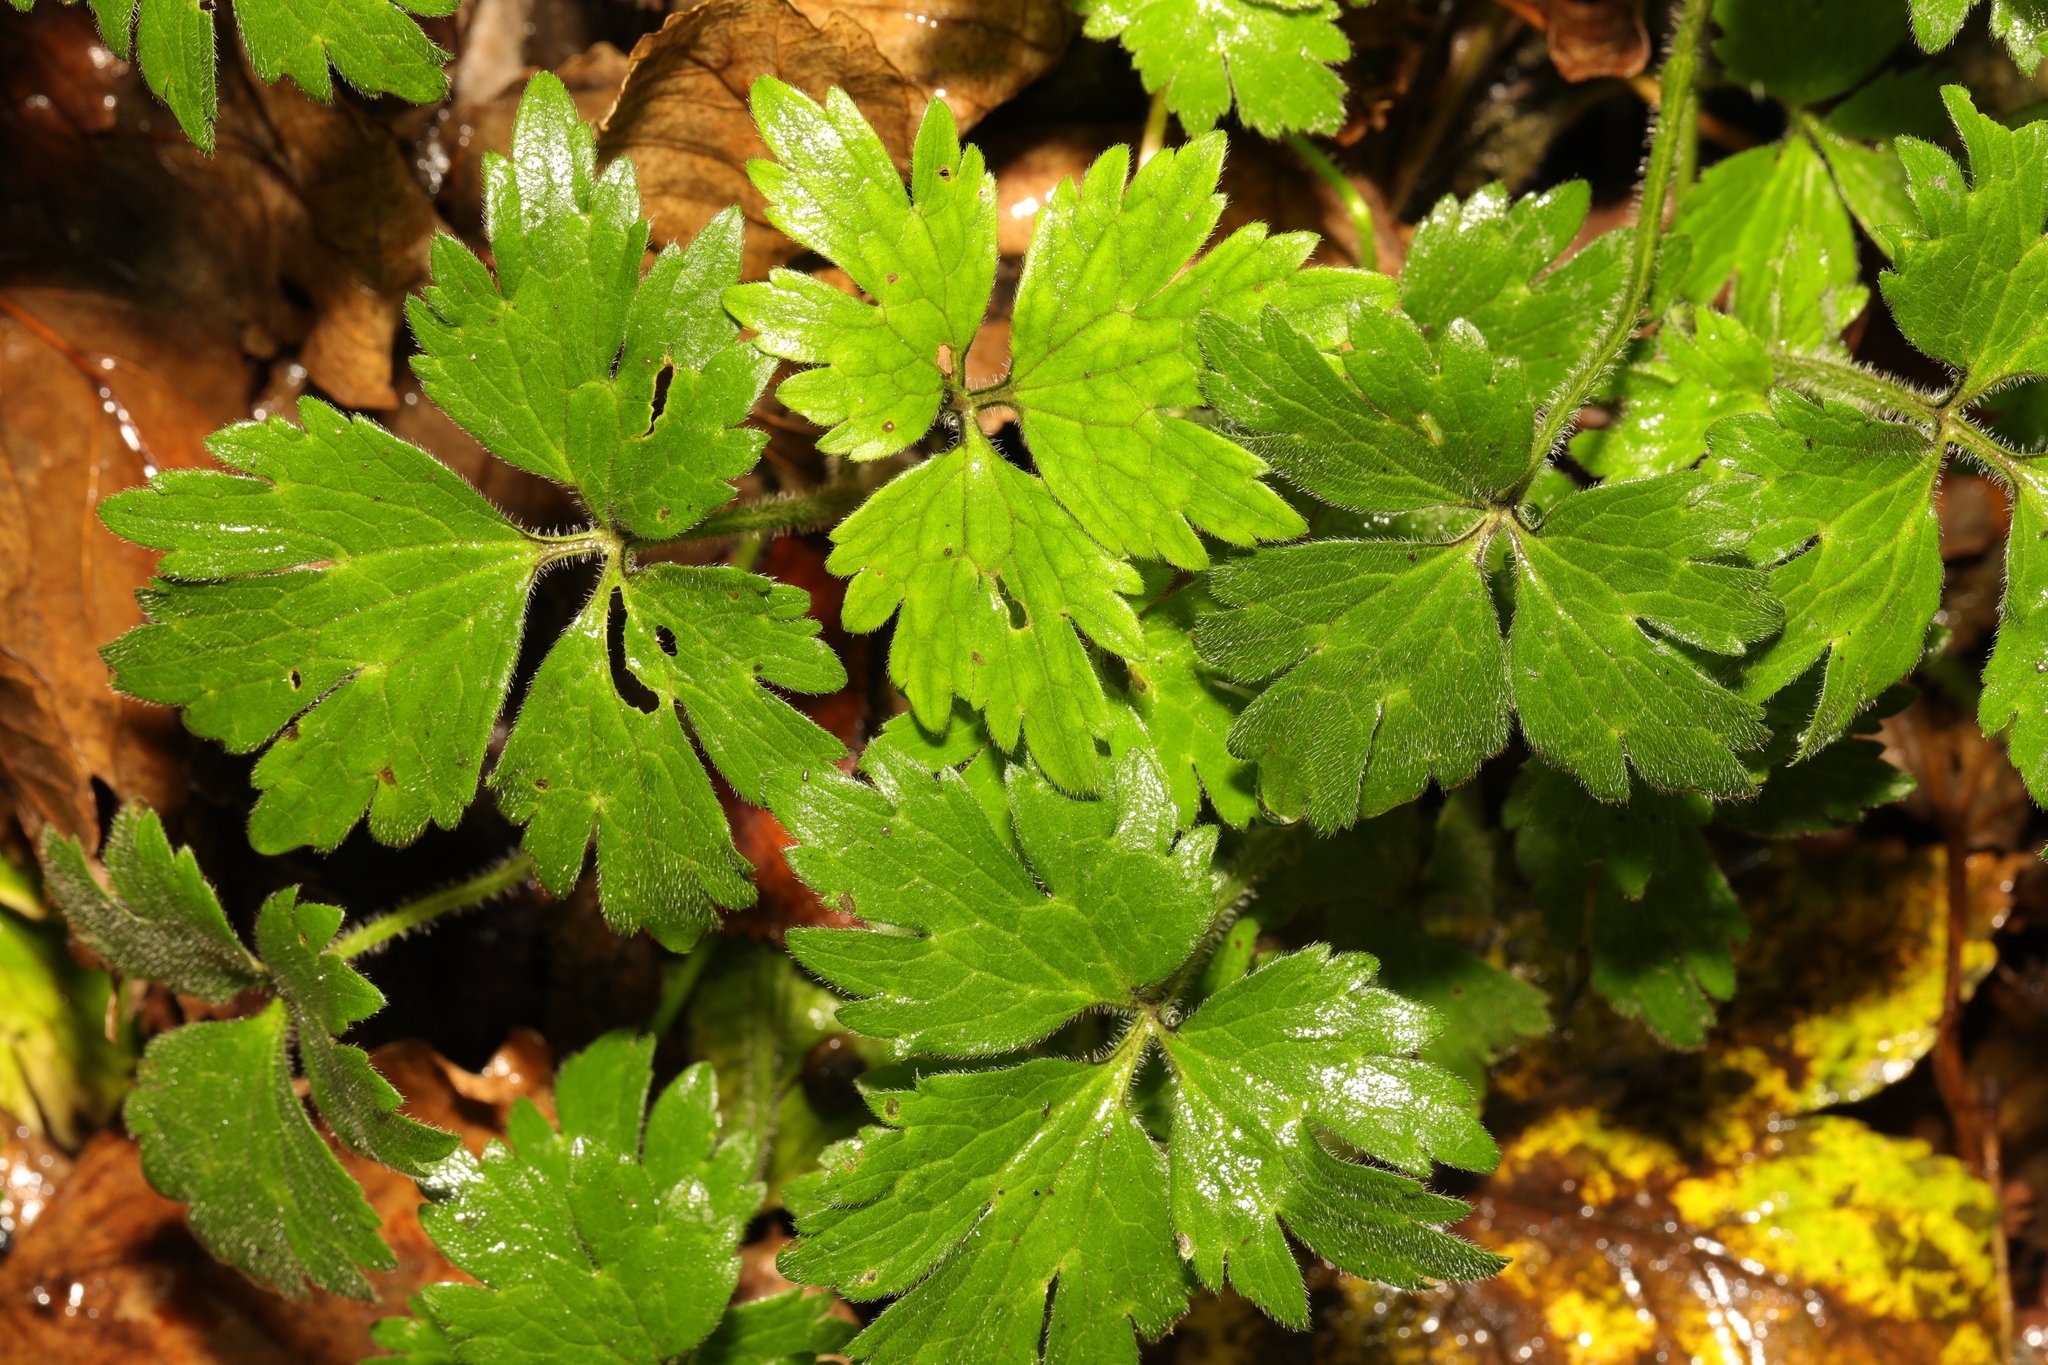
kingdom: Plantae
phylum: Tracheophyta
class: Magnoliopsida
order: Ranunculales
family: Ranunculaceae
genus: Ranunculus
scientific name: Ranunculus repens
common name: Creeping buttercup
